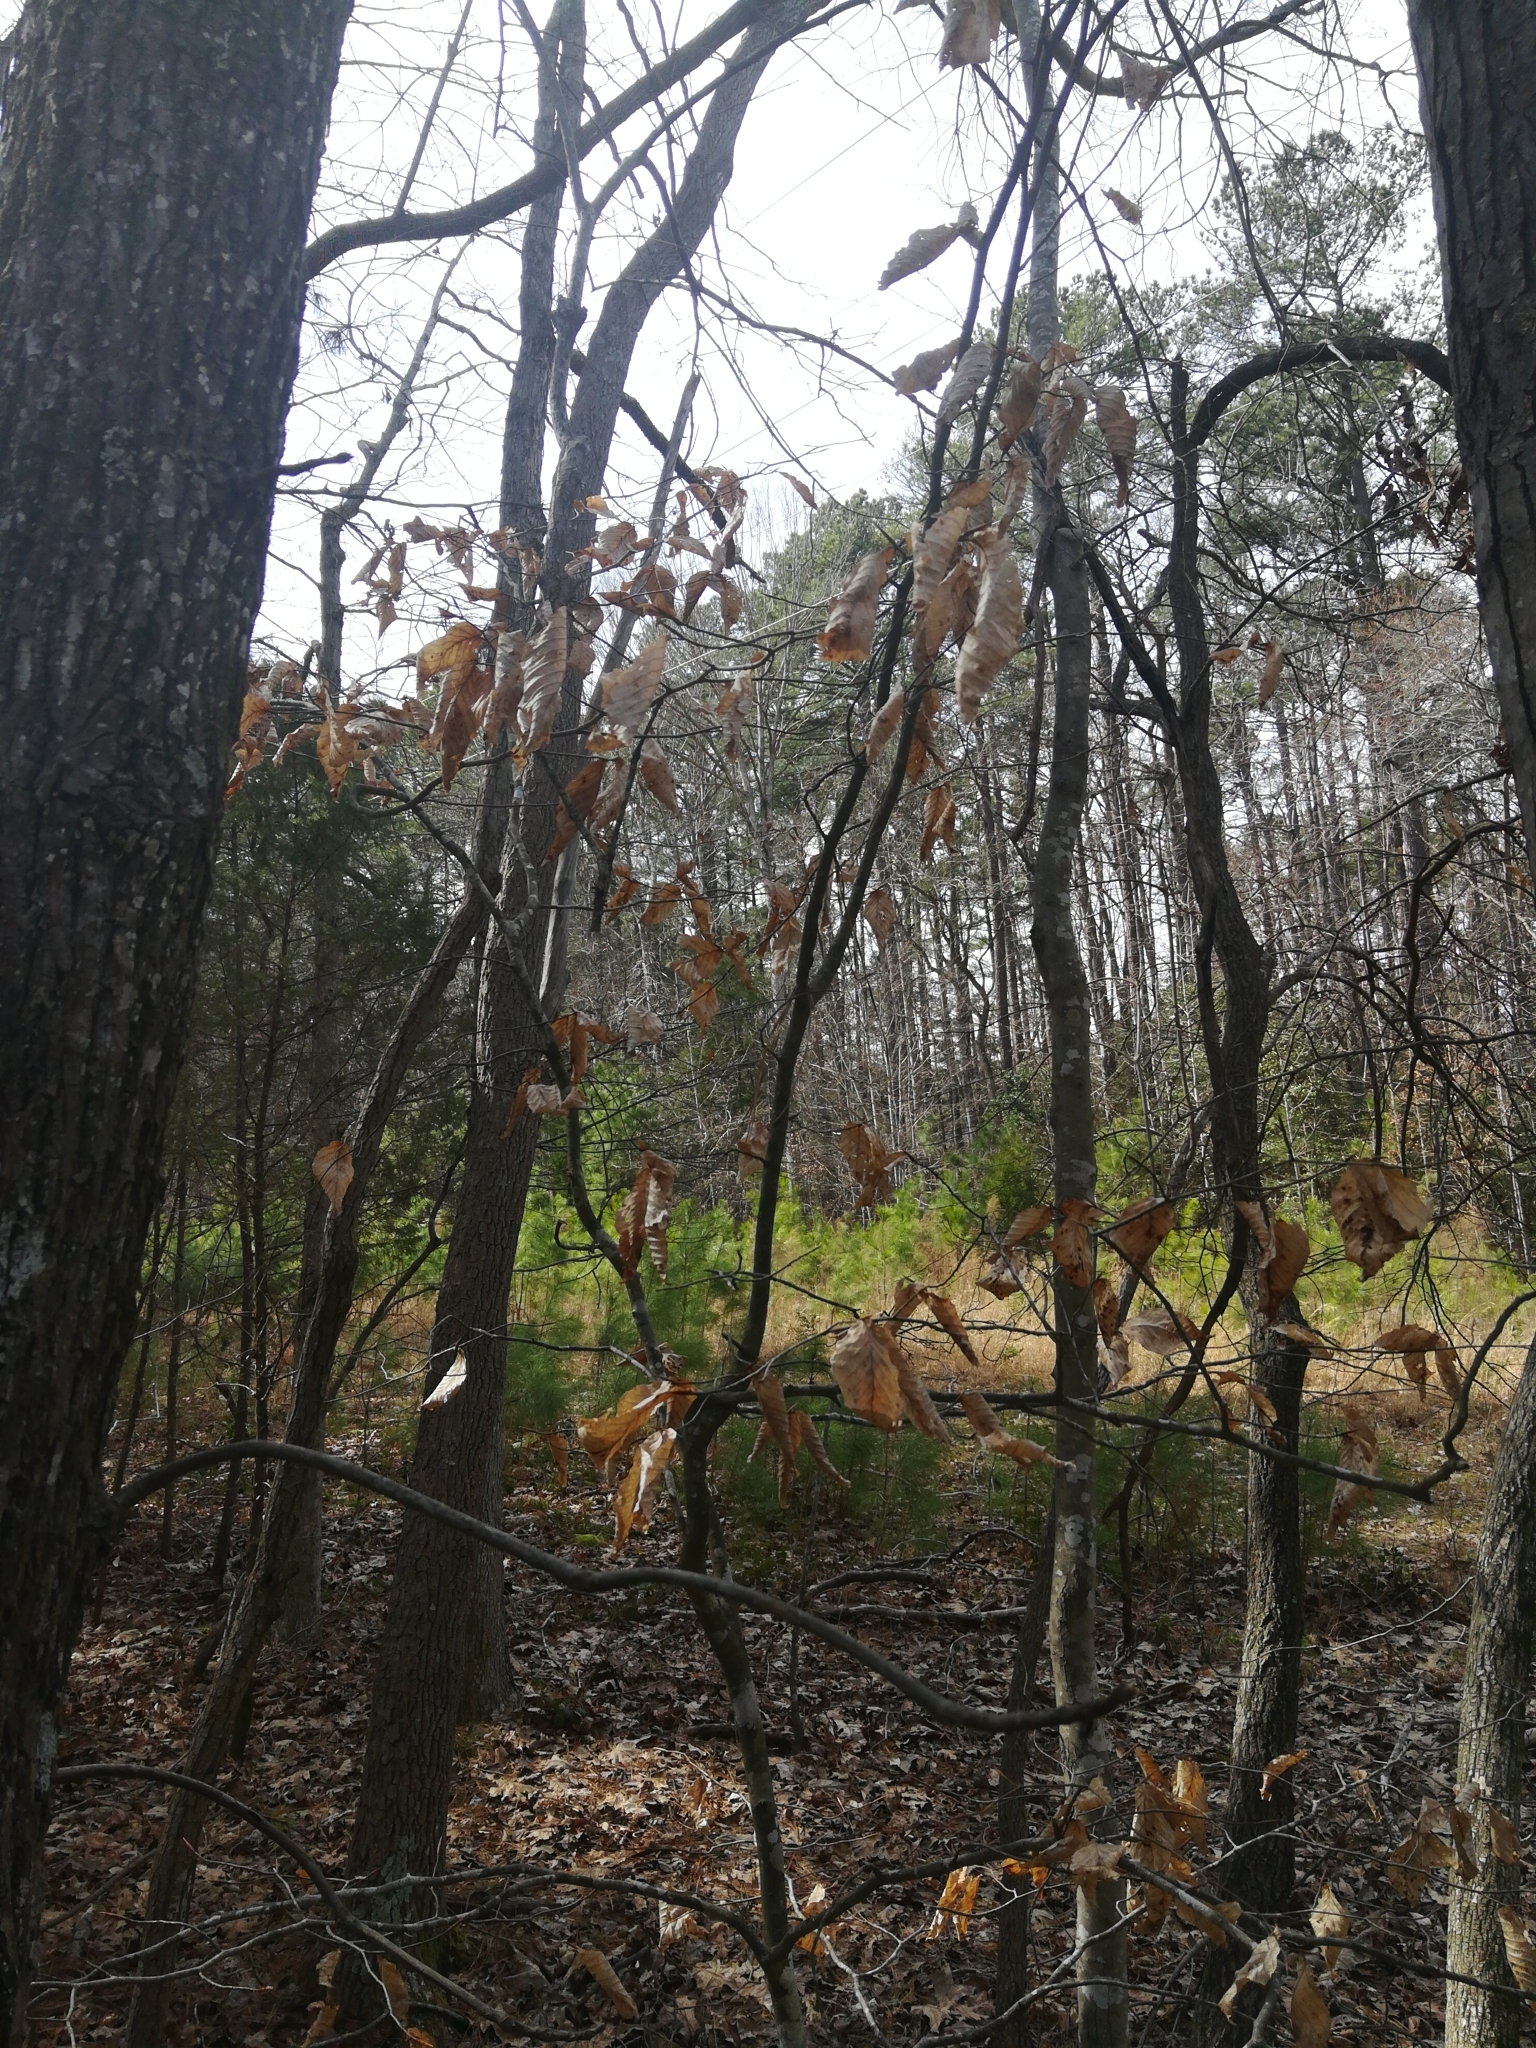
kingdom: Plantae
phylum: Tracheophyta
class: Magnoliopsida
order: Fagales
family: Fagaceae
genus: Fagus
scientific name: Fagus grandifolia
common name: American beech
